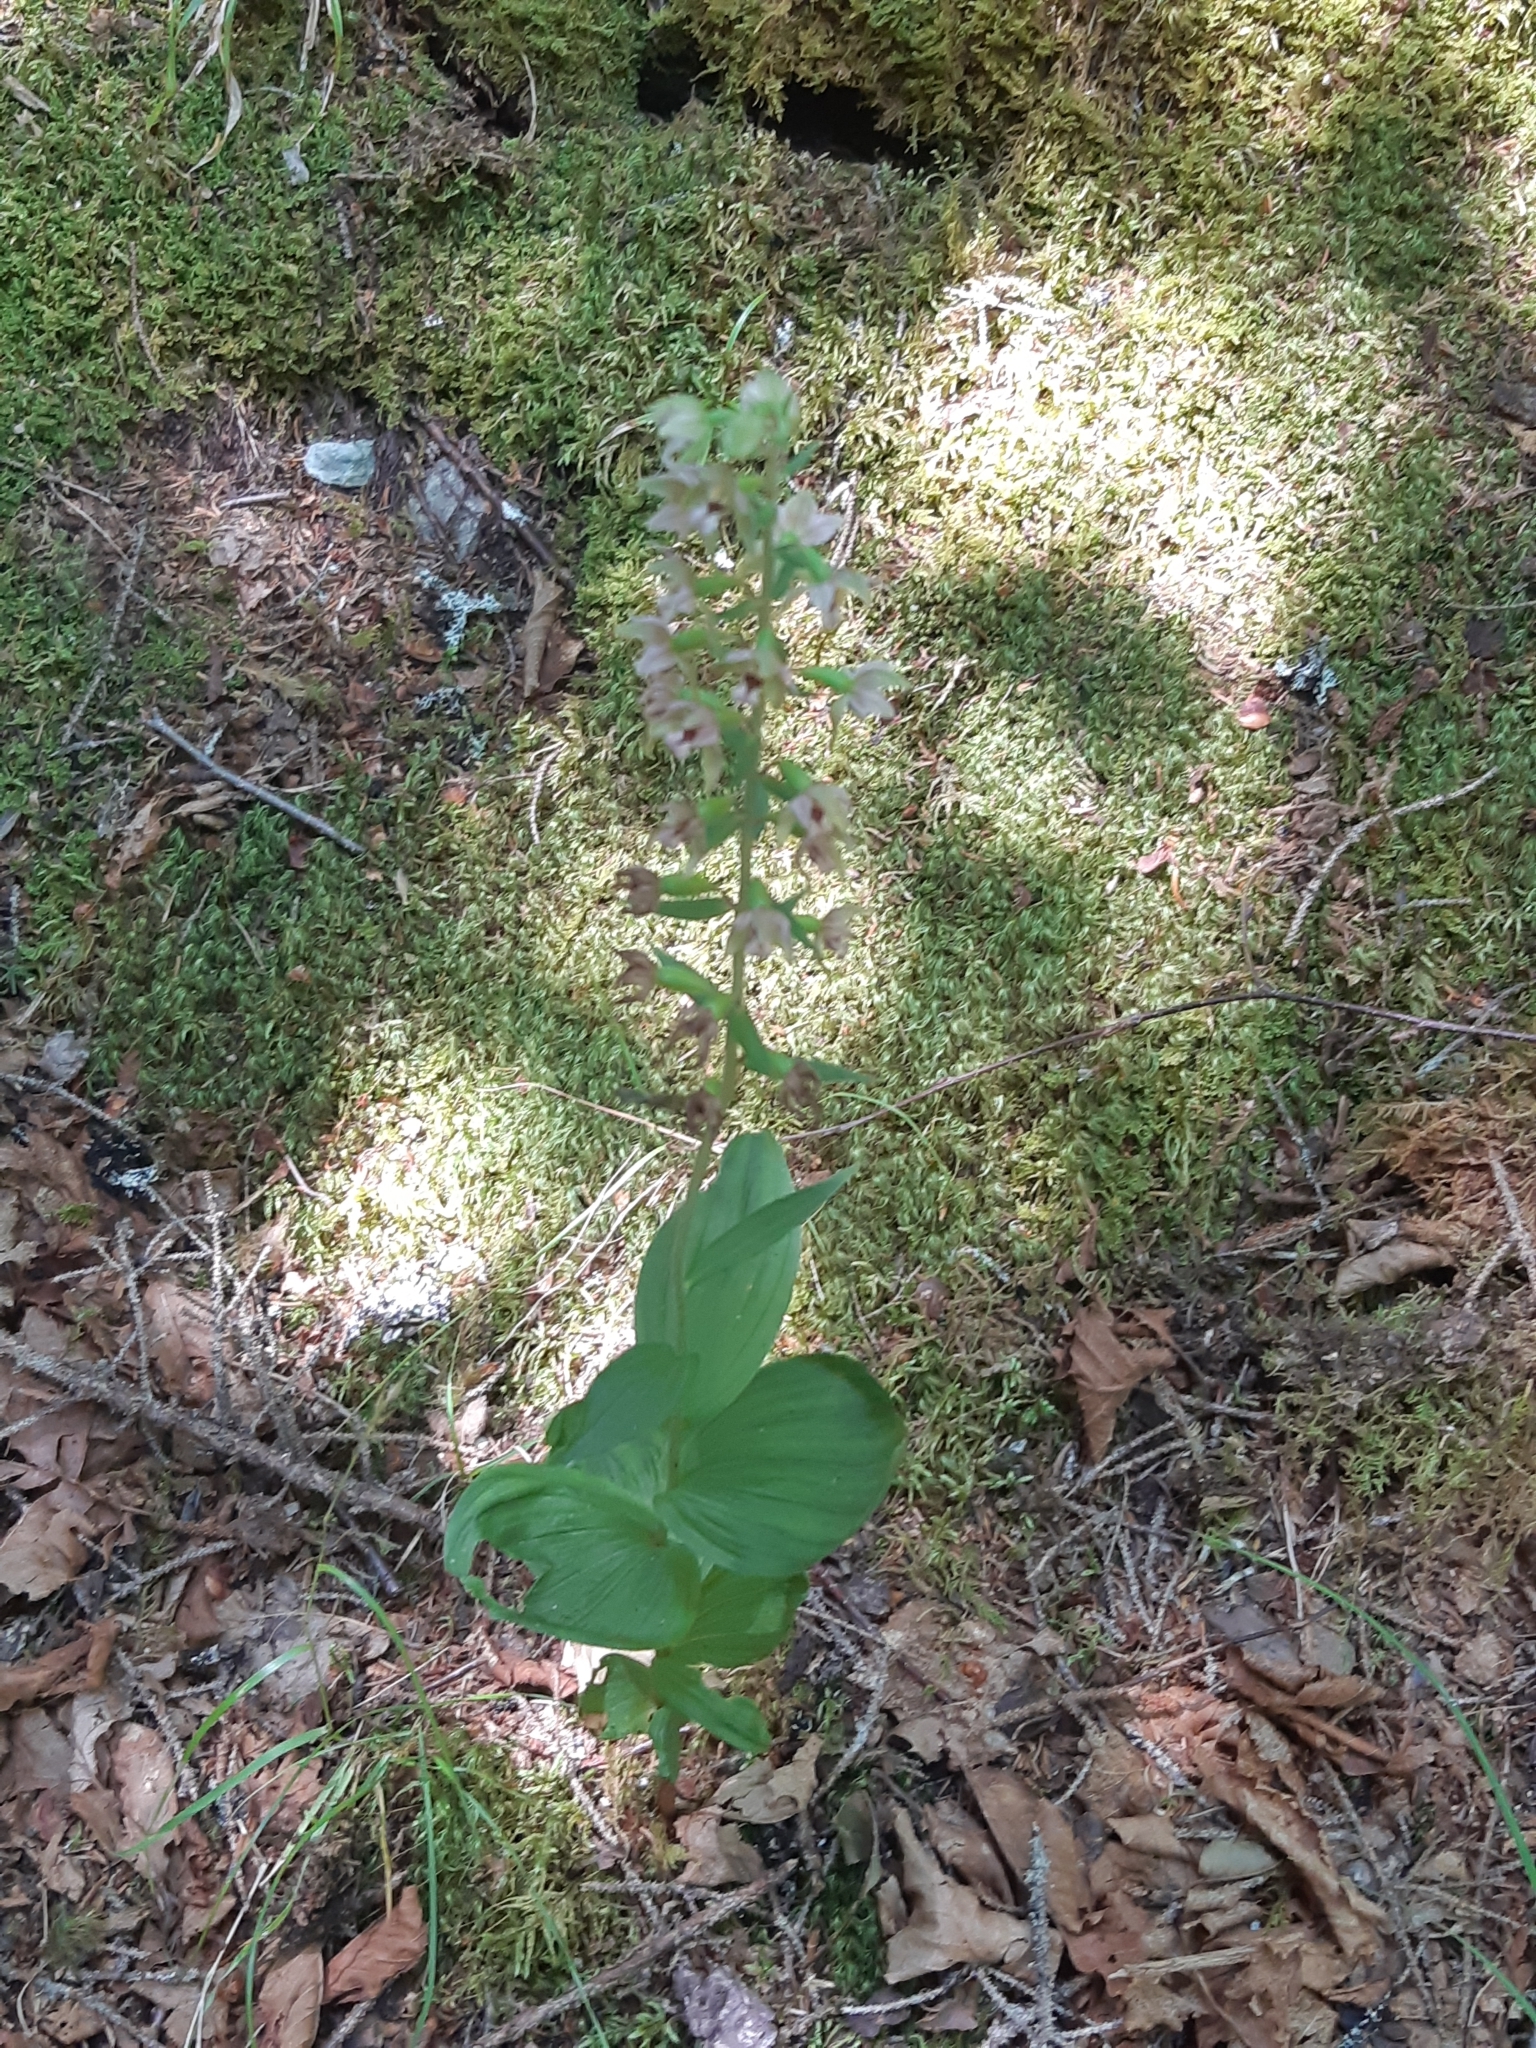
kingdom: Plantae
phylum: Tracheophyta
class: Liliopsida
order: Asparagales
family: Orchidaceae
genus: Epipactis
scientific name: Epipactis helleborine
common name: Broad-leaved helleborine
